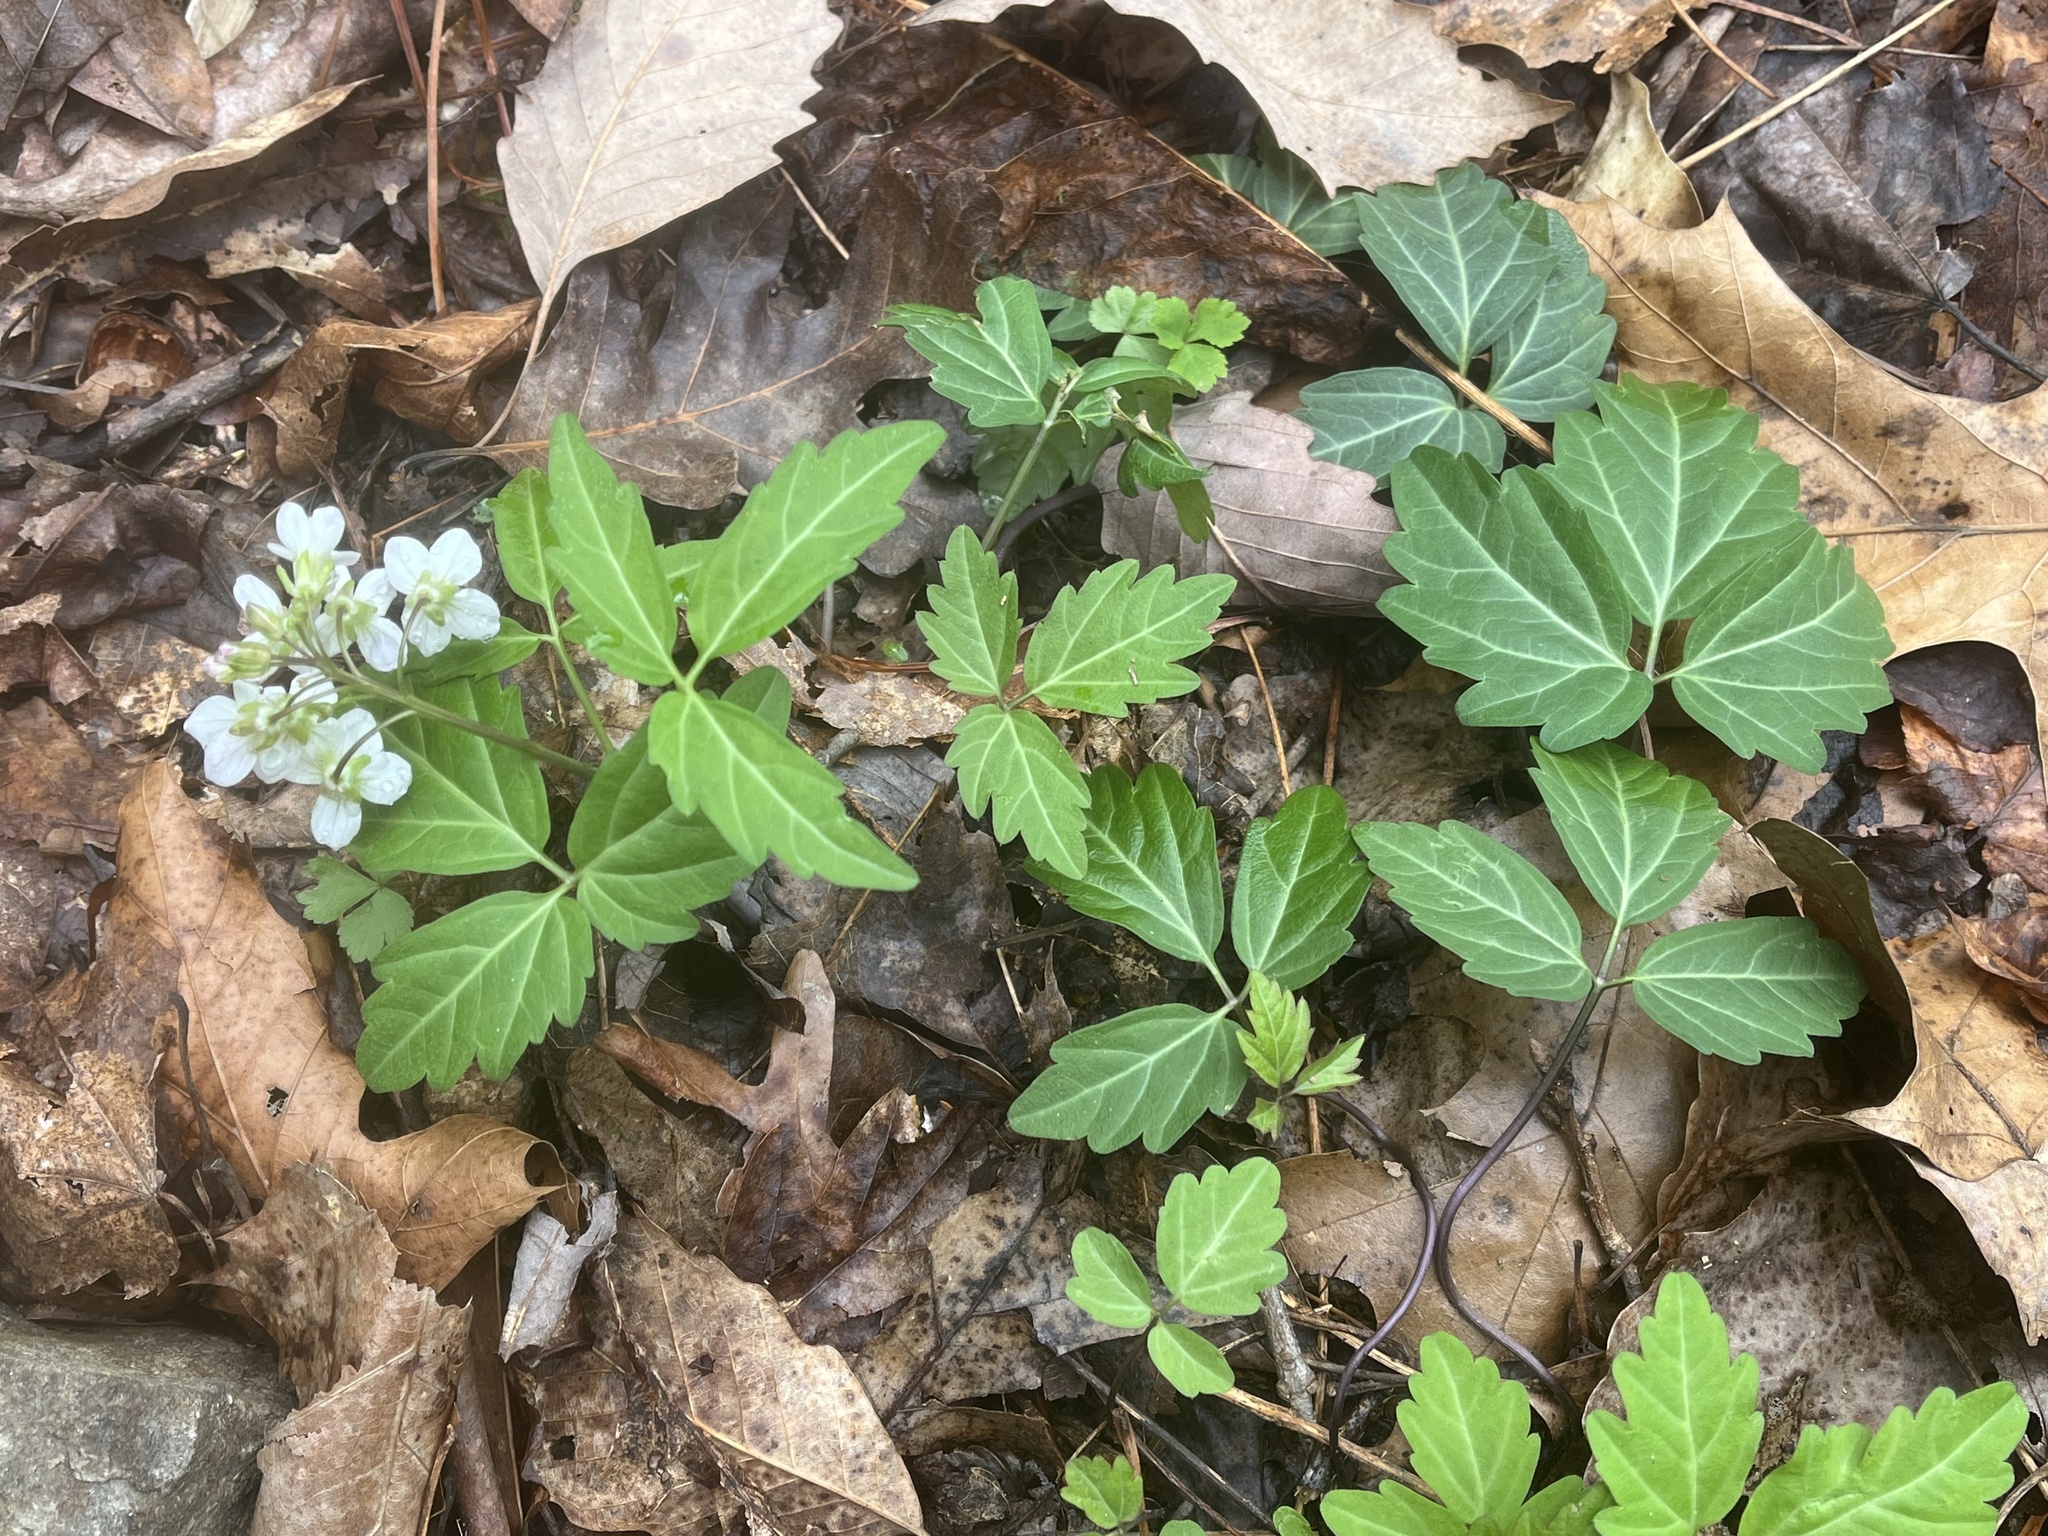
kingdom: Plantae
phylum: Tracheophyta
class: Magnoliopsida
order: Brassicales
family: Brassicaceae
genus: Cardamine
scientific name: Cardamine diphylla
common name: Broad-leaved toothwort
